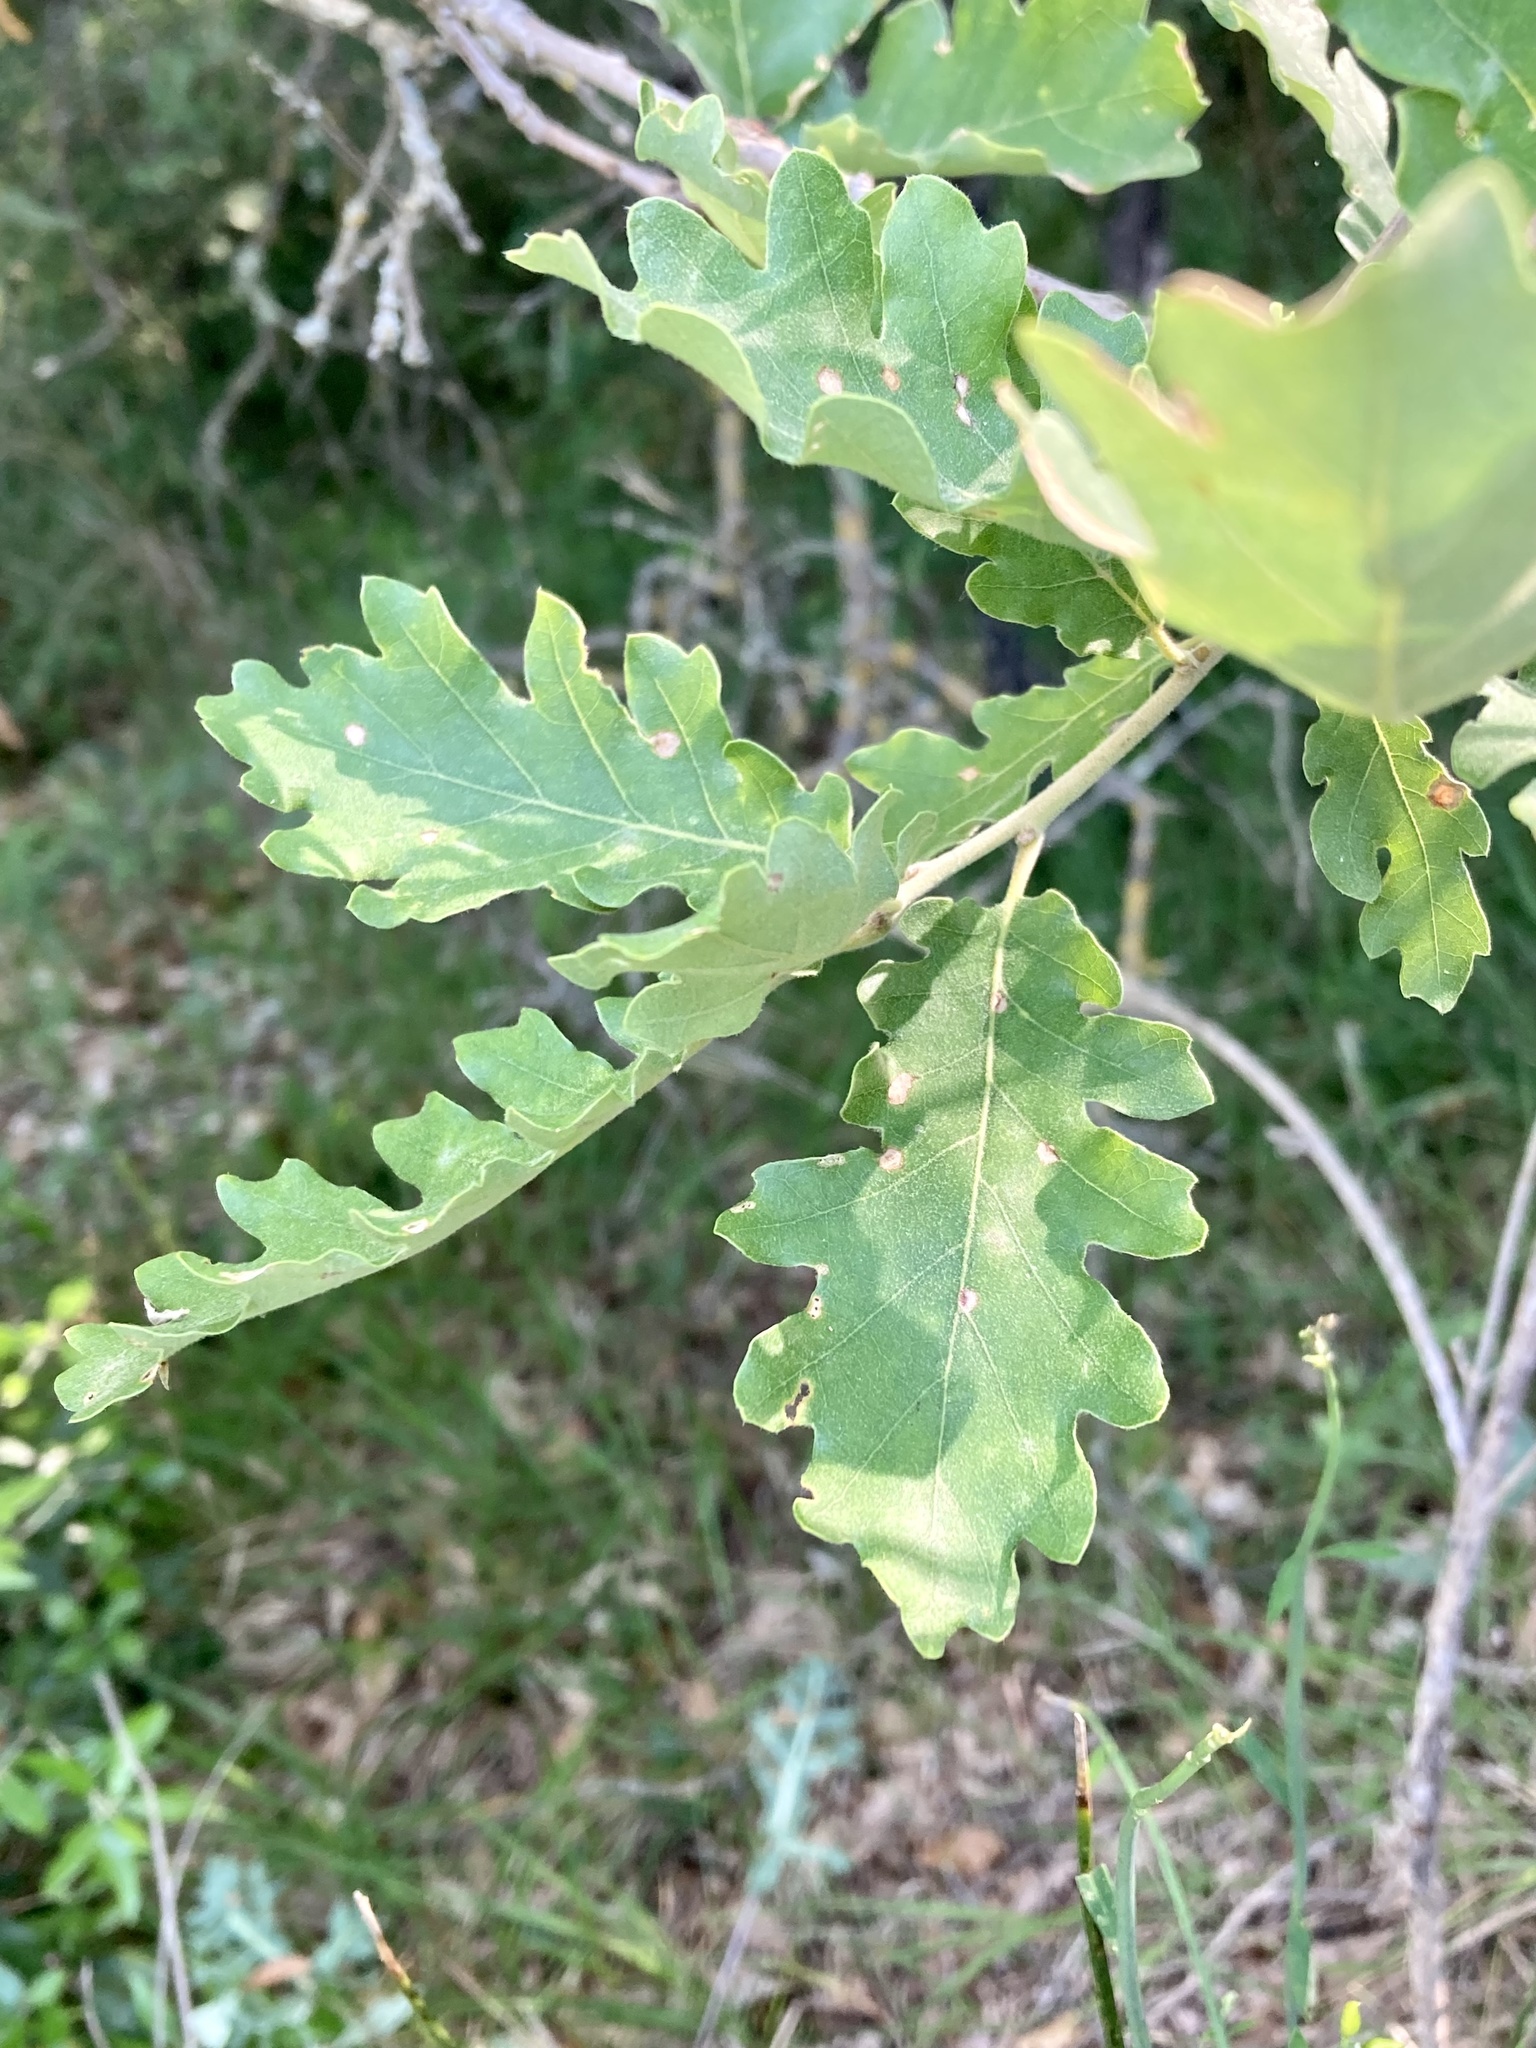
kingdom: Plantae
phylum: Tracheophyta
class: Magnoliopsida
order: Fagales
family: Fagaceae
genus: Quercus
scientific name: Quercus pubescens
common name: Downy oak
